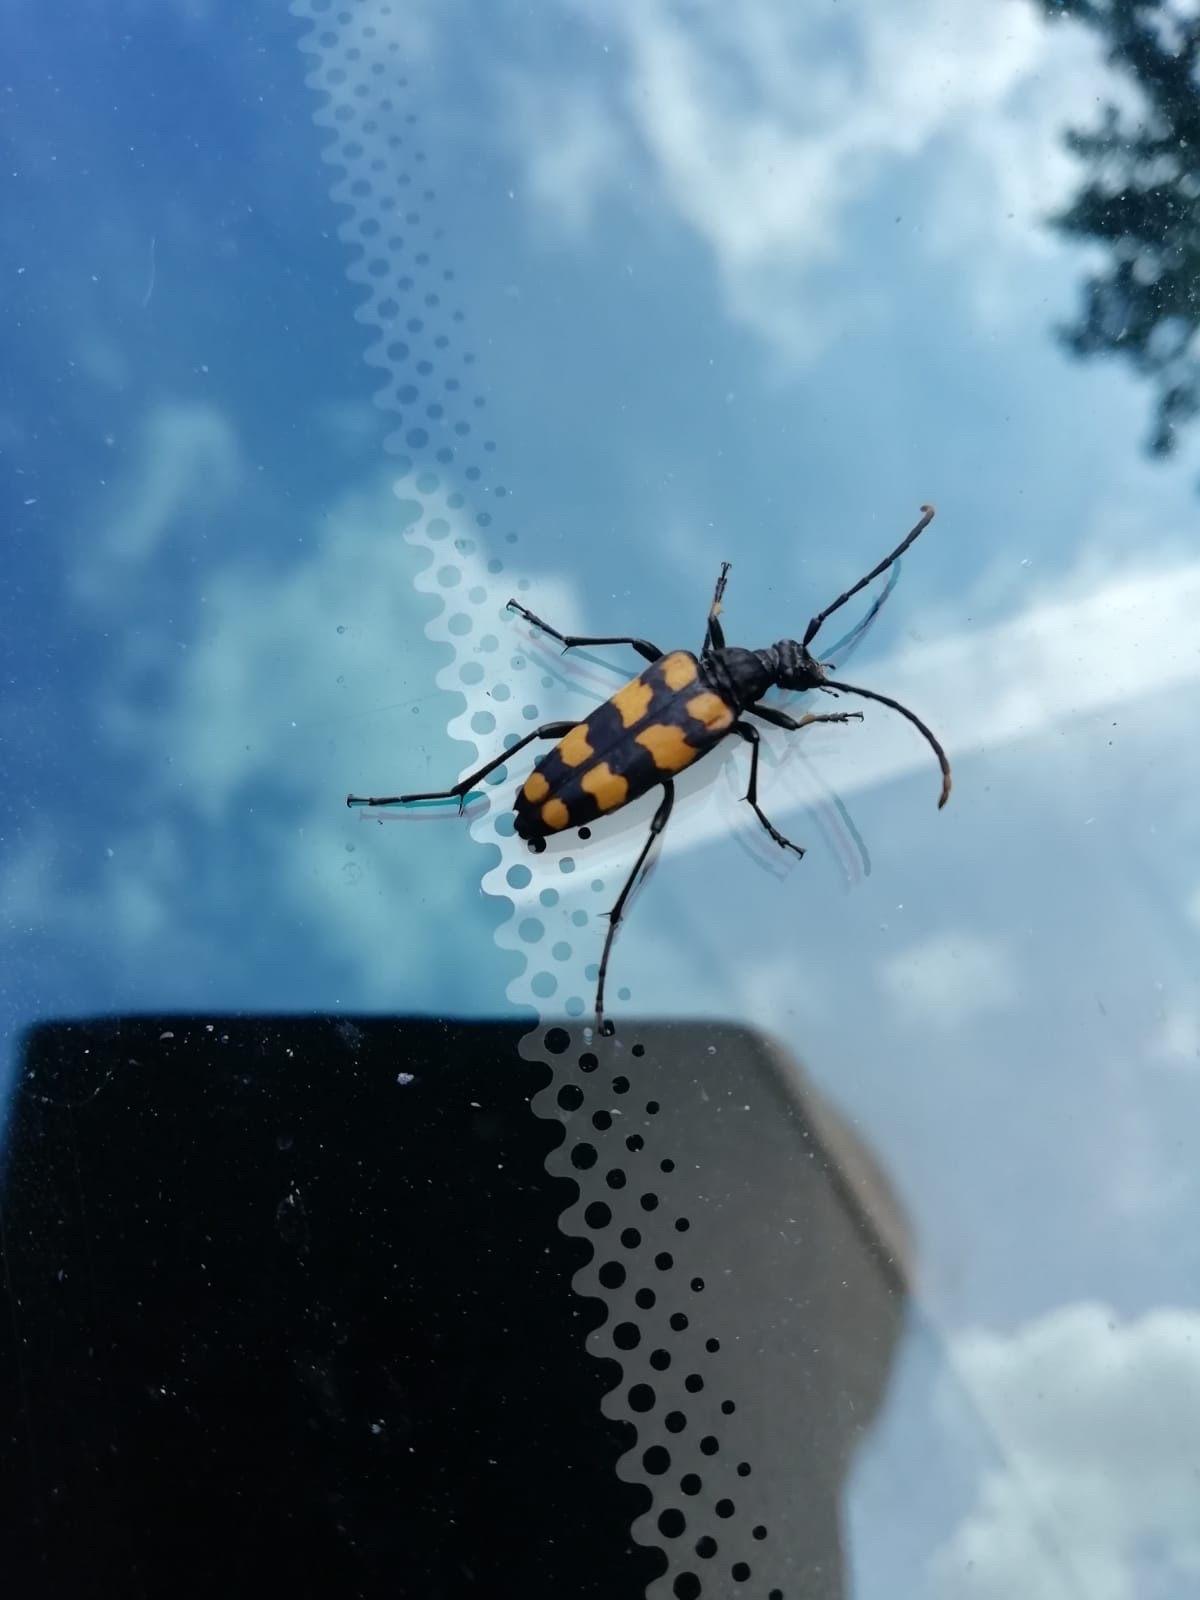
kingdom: Animalia
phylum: Arthropoda
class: Insecta
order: Coleoptera
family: Cerambycidae
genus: Leptura
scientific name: Leptura quadrifasciata
